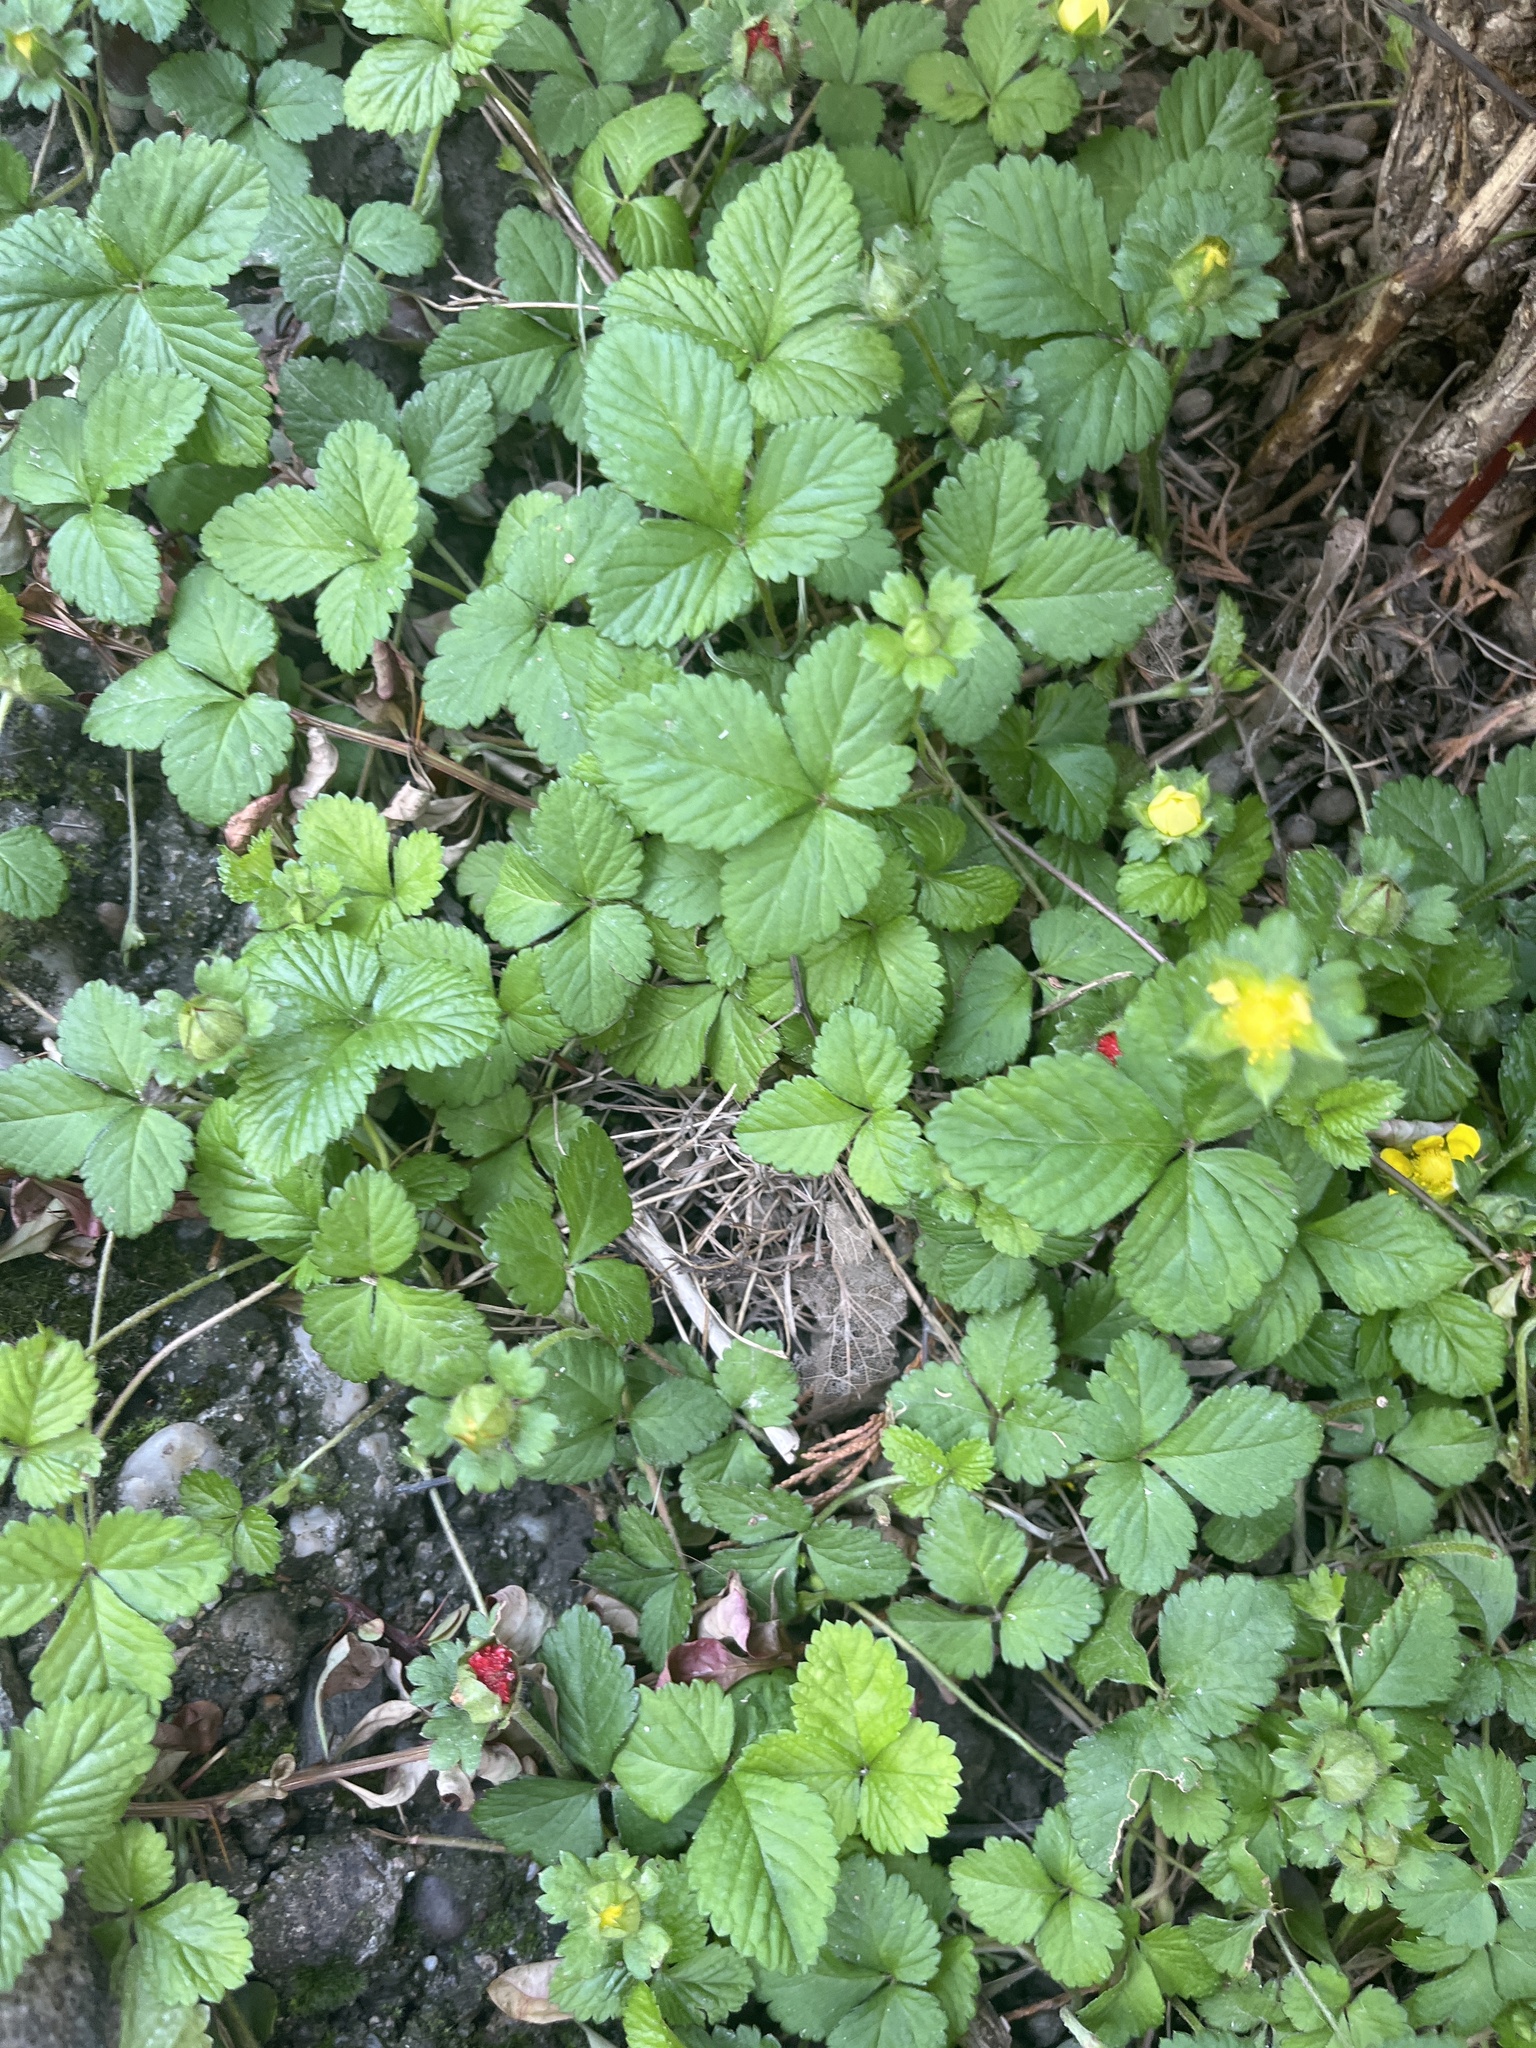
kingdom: Plantae
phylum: Tracheophyta
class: Magnoliopsida
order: Rosales
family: Rosaceae
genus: Potentilla
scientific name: Potentilla indica
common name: Yellow-flowered strawberry
